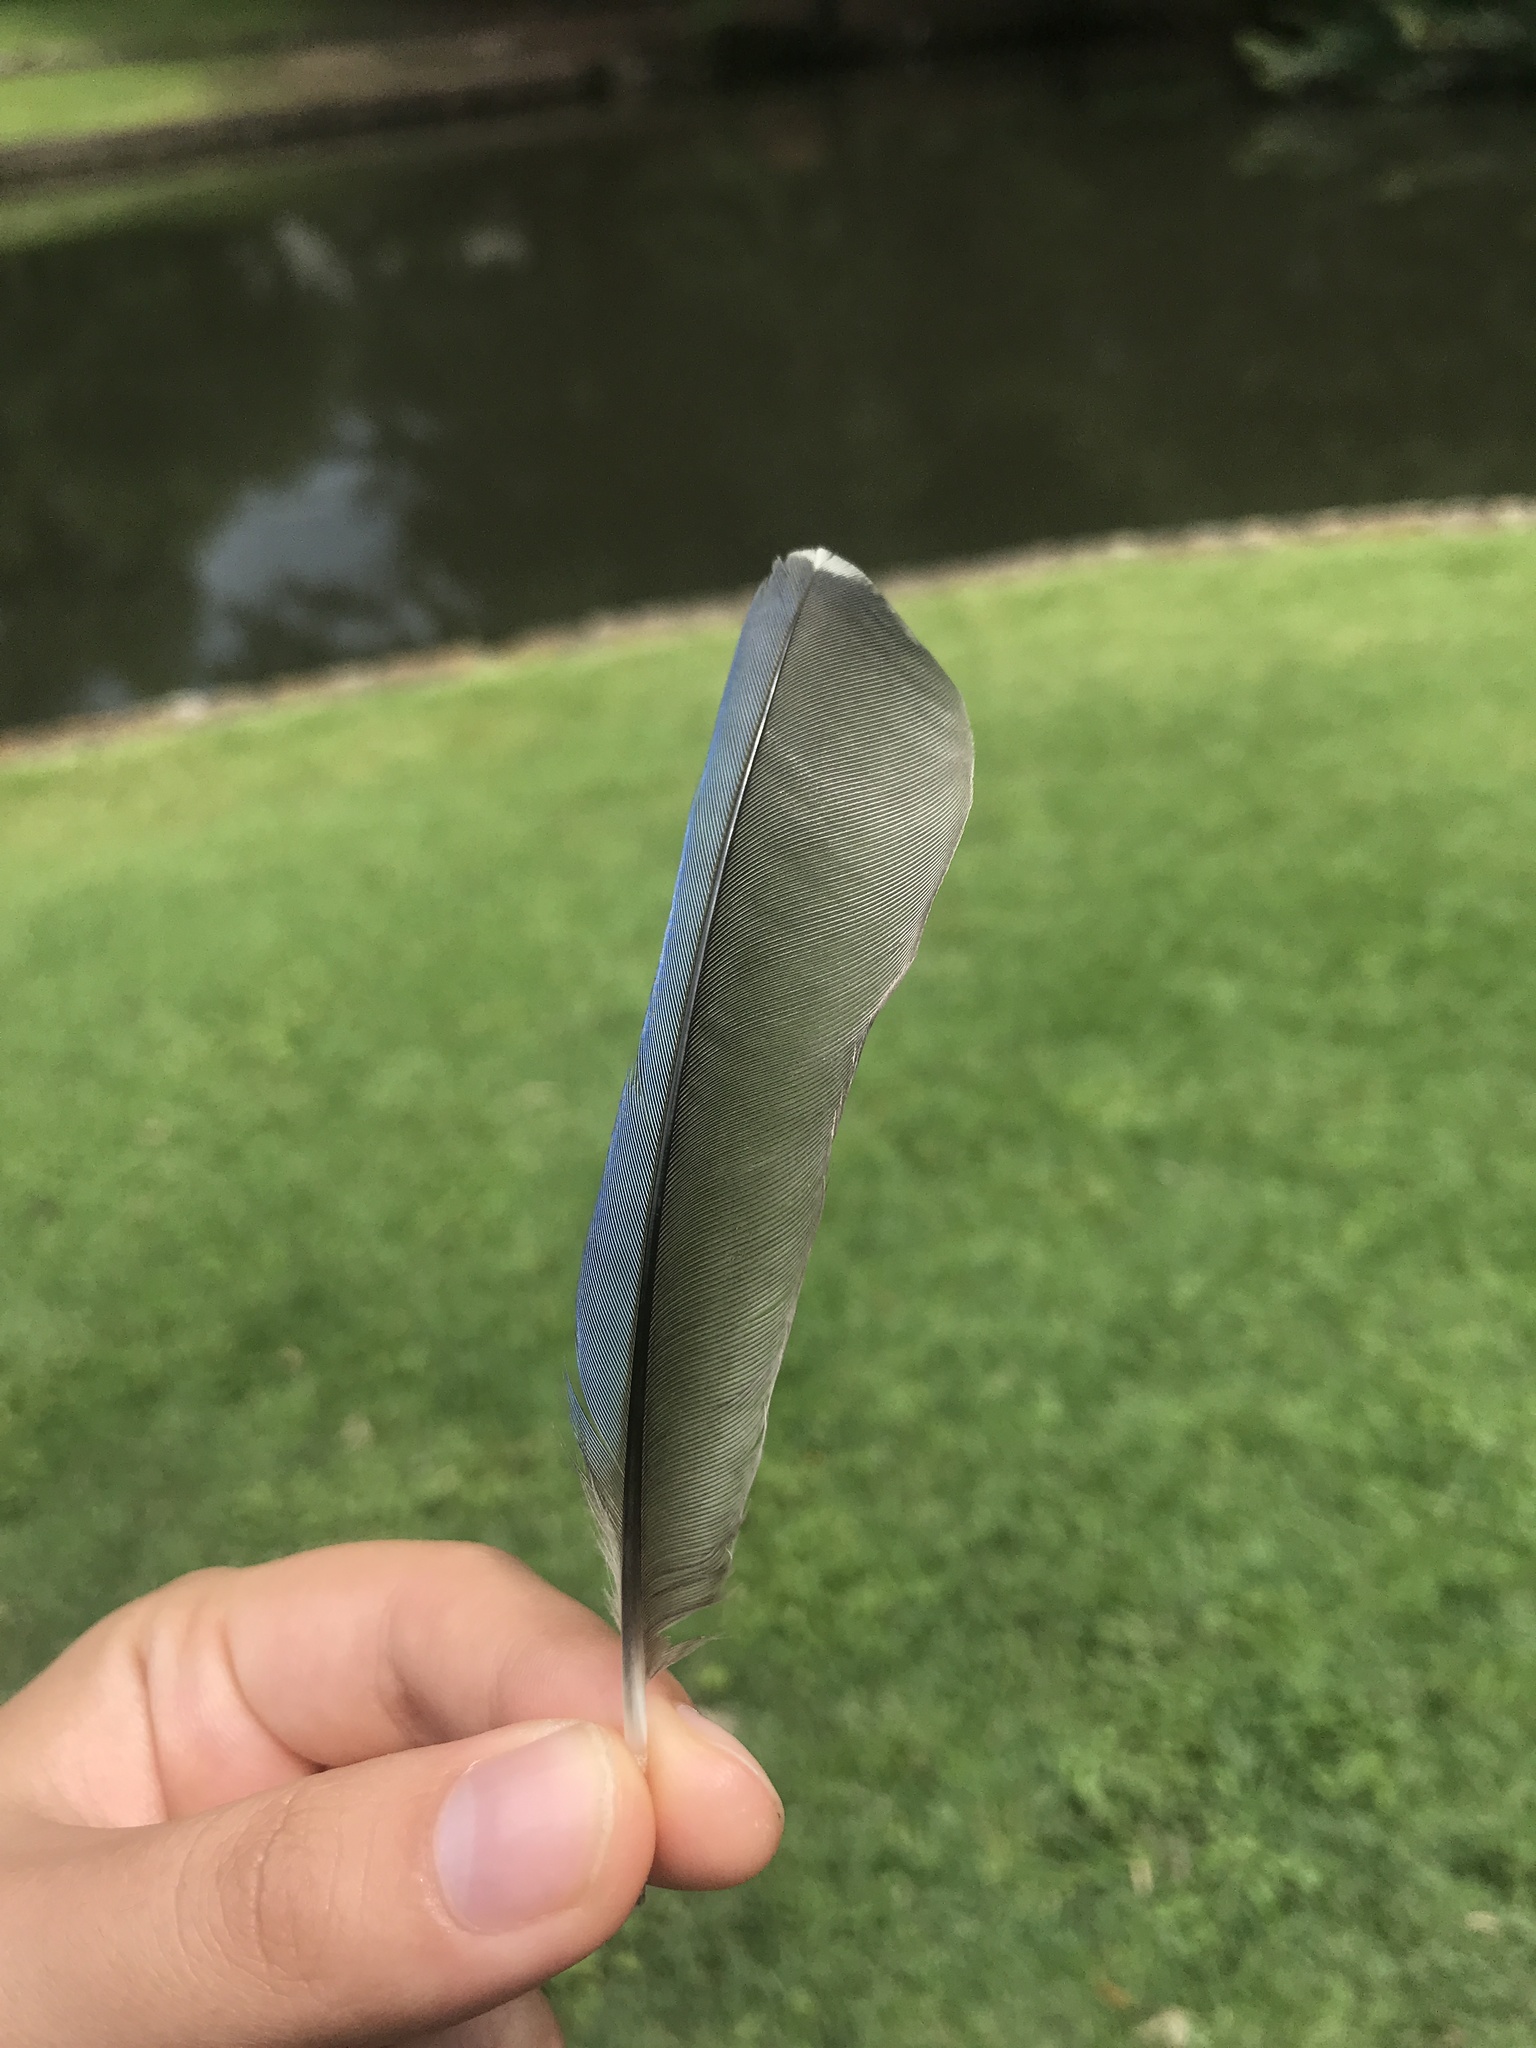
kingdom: Animalia
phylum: Chordata
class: Aves
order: Passeriformes
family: Corvidae
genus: Cyanocitta
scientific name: Cyanocitta cristata
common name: Blue jay
